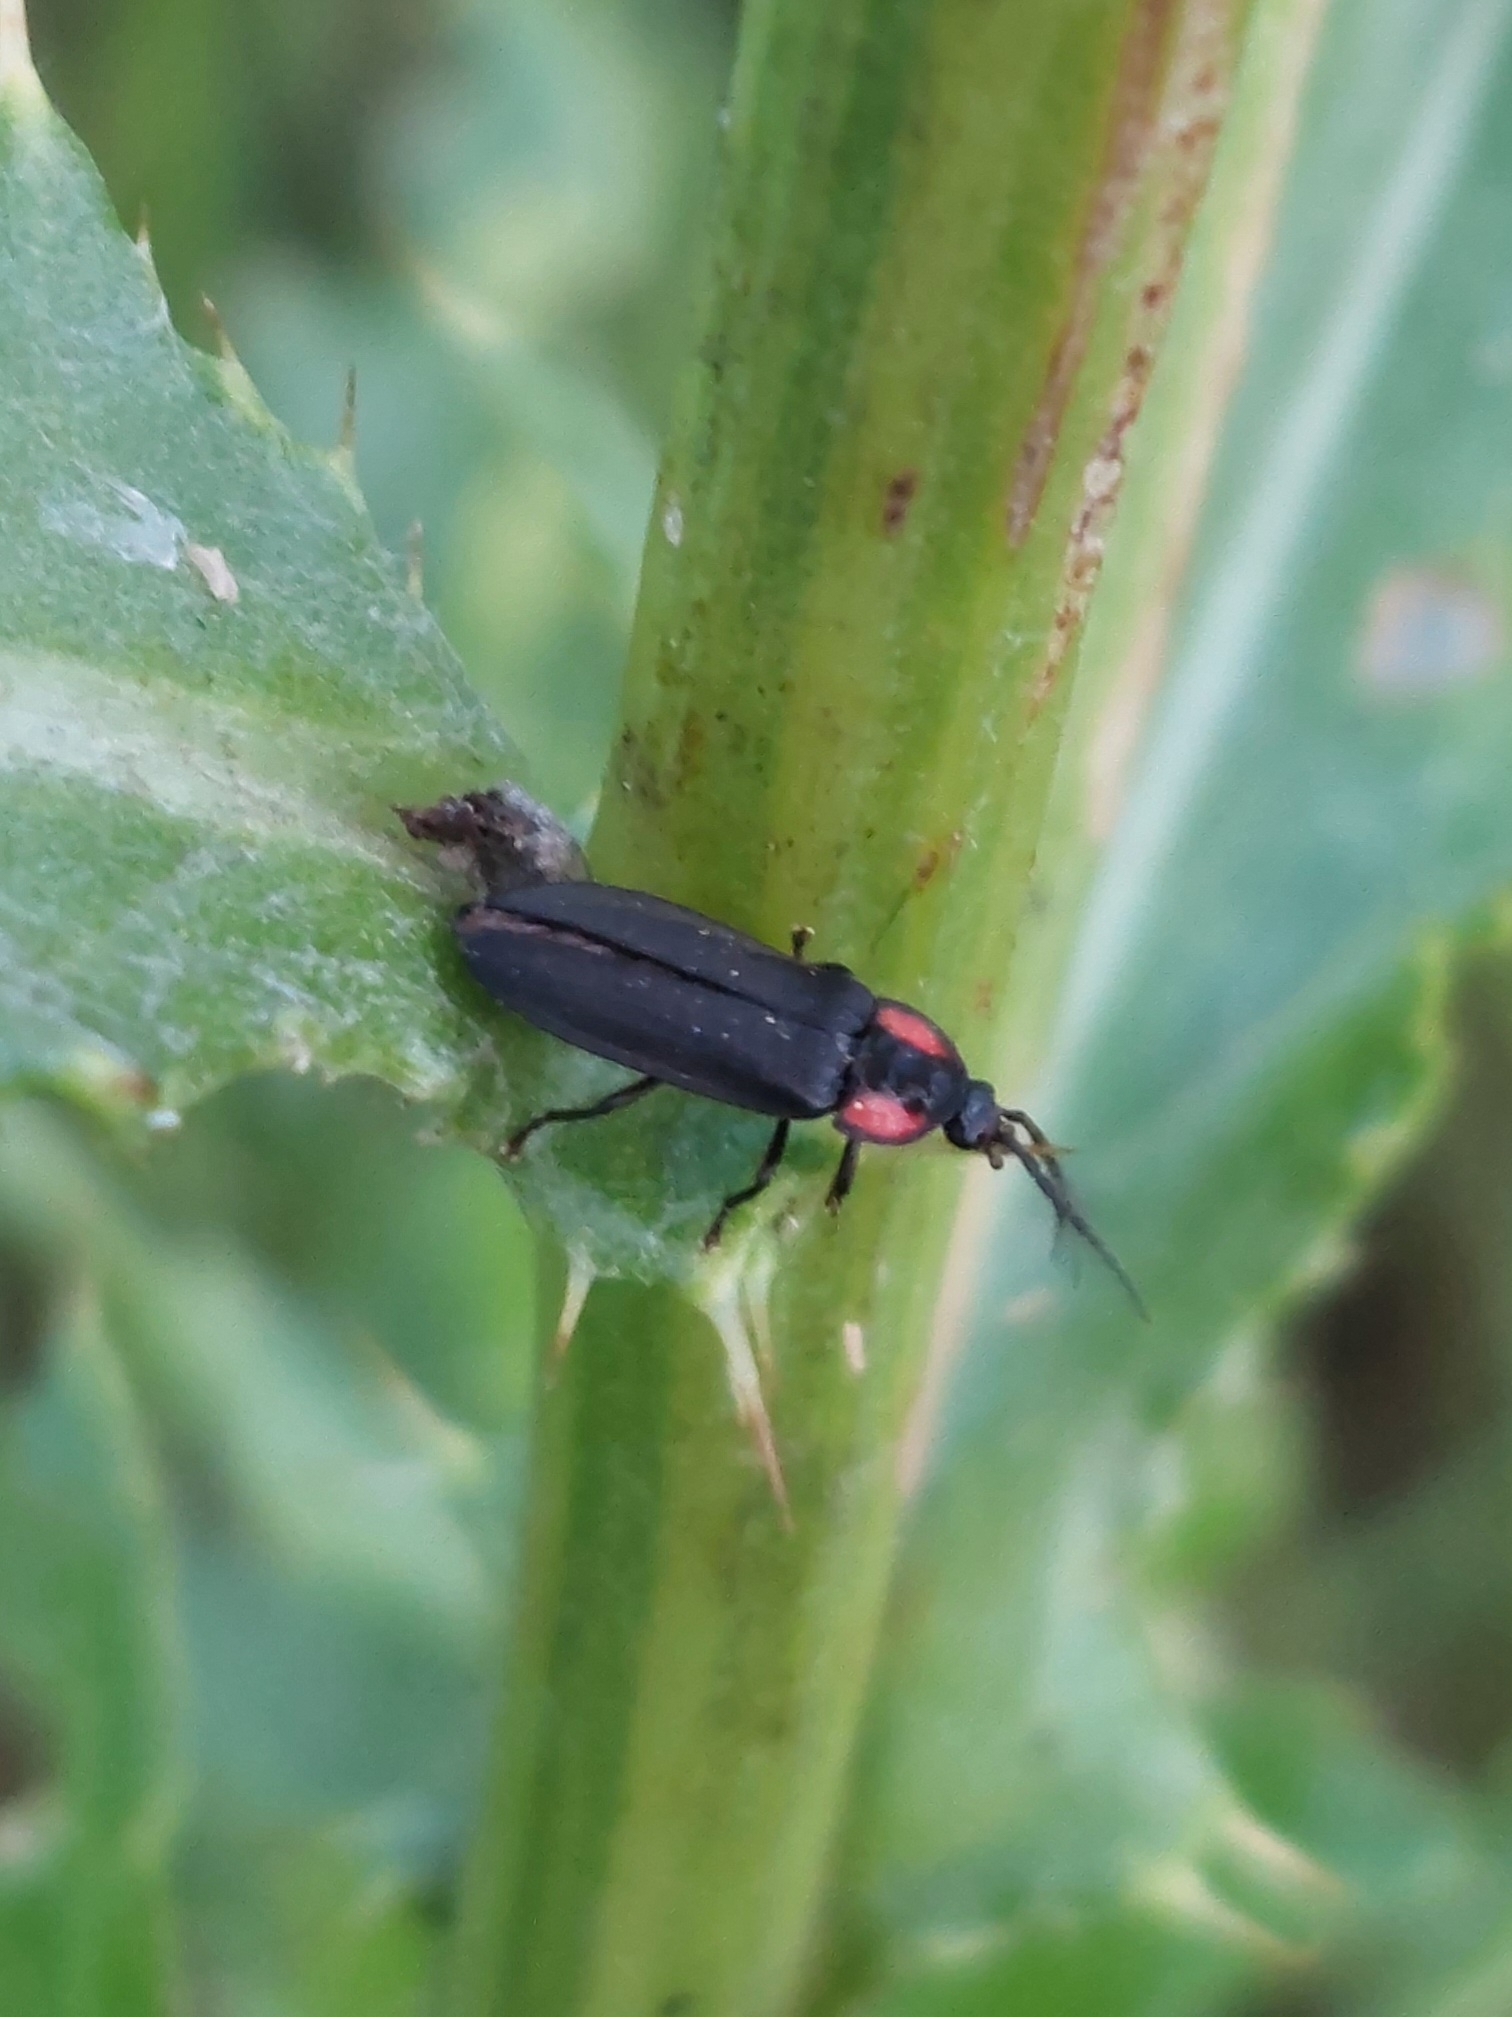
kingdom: Animalia
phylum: Arthropoda
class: Insecta
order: Coleoptera
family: Lampyridae
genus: Pyropyga
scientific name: Pyropyga nigricans
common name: Dark firefly
